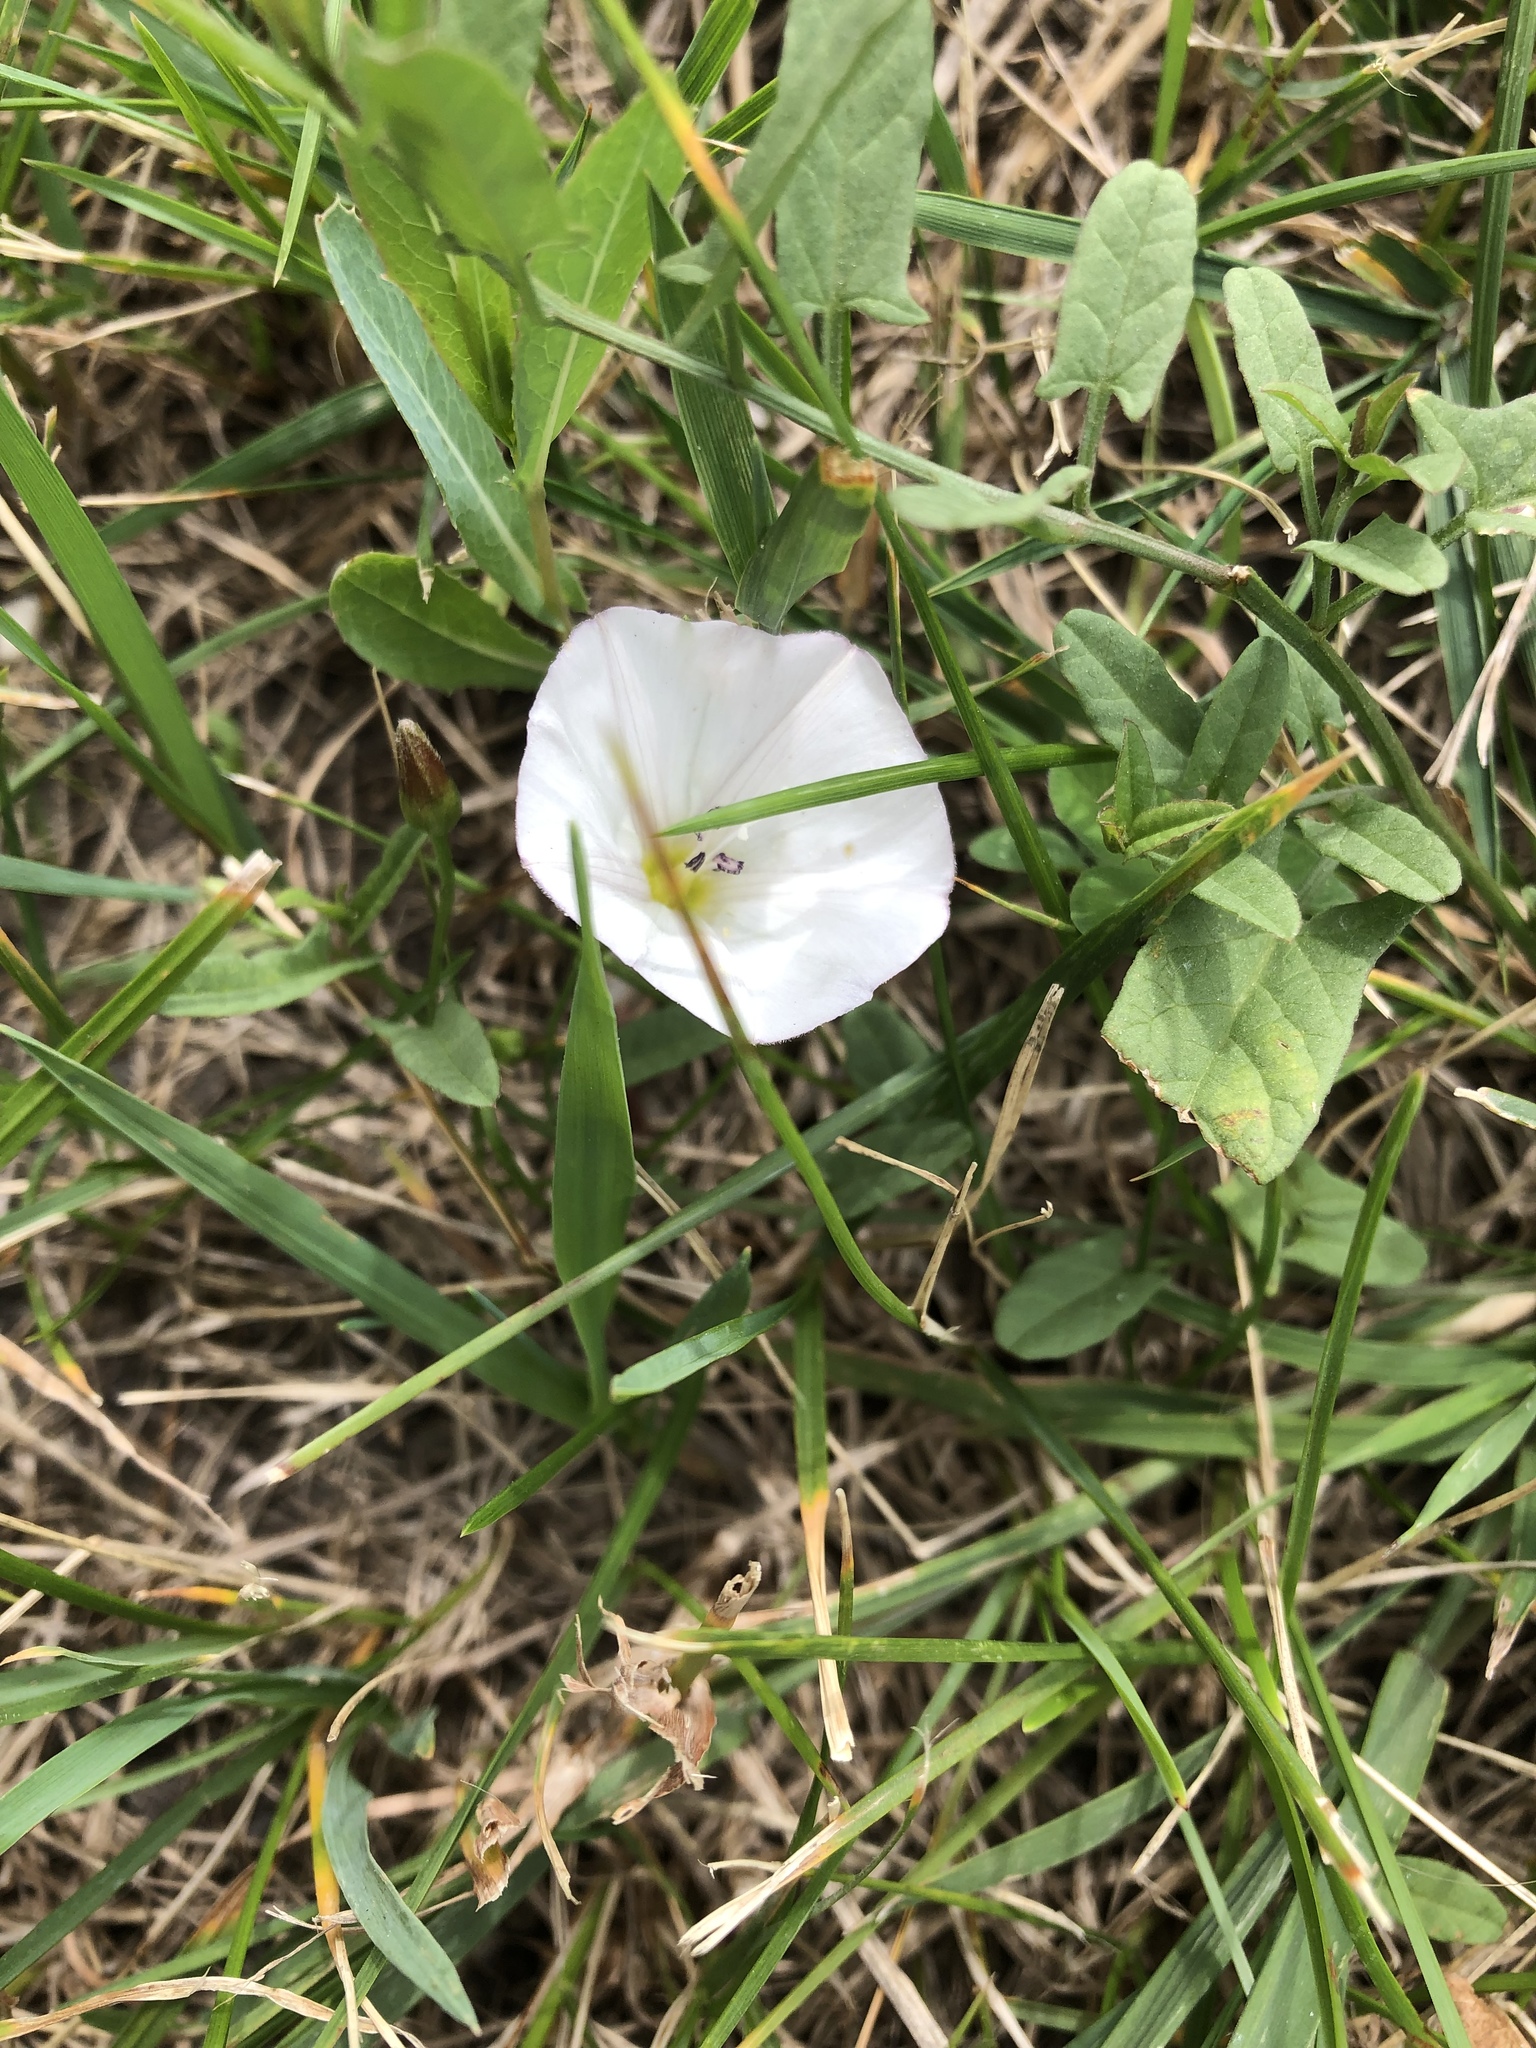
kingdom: Plantae
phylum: Tracheophyta
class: Magnoliopsida
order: Solanales
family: Convolvulaceae
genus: Convolvulus
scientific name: Convolvulus arvensis
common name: Field bindweed
